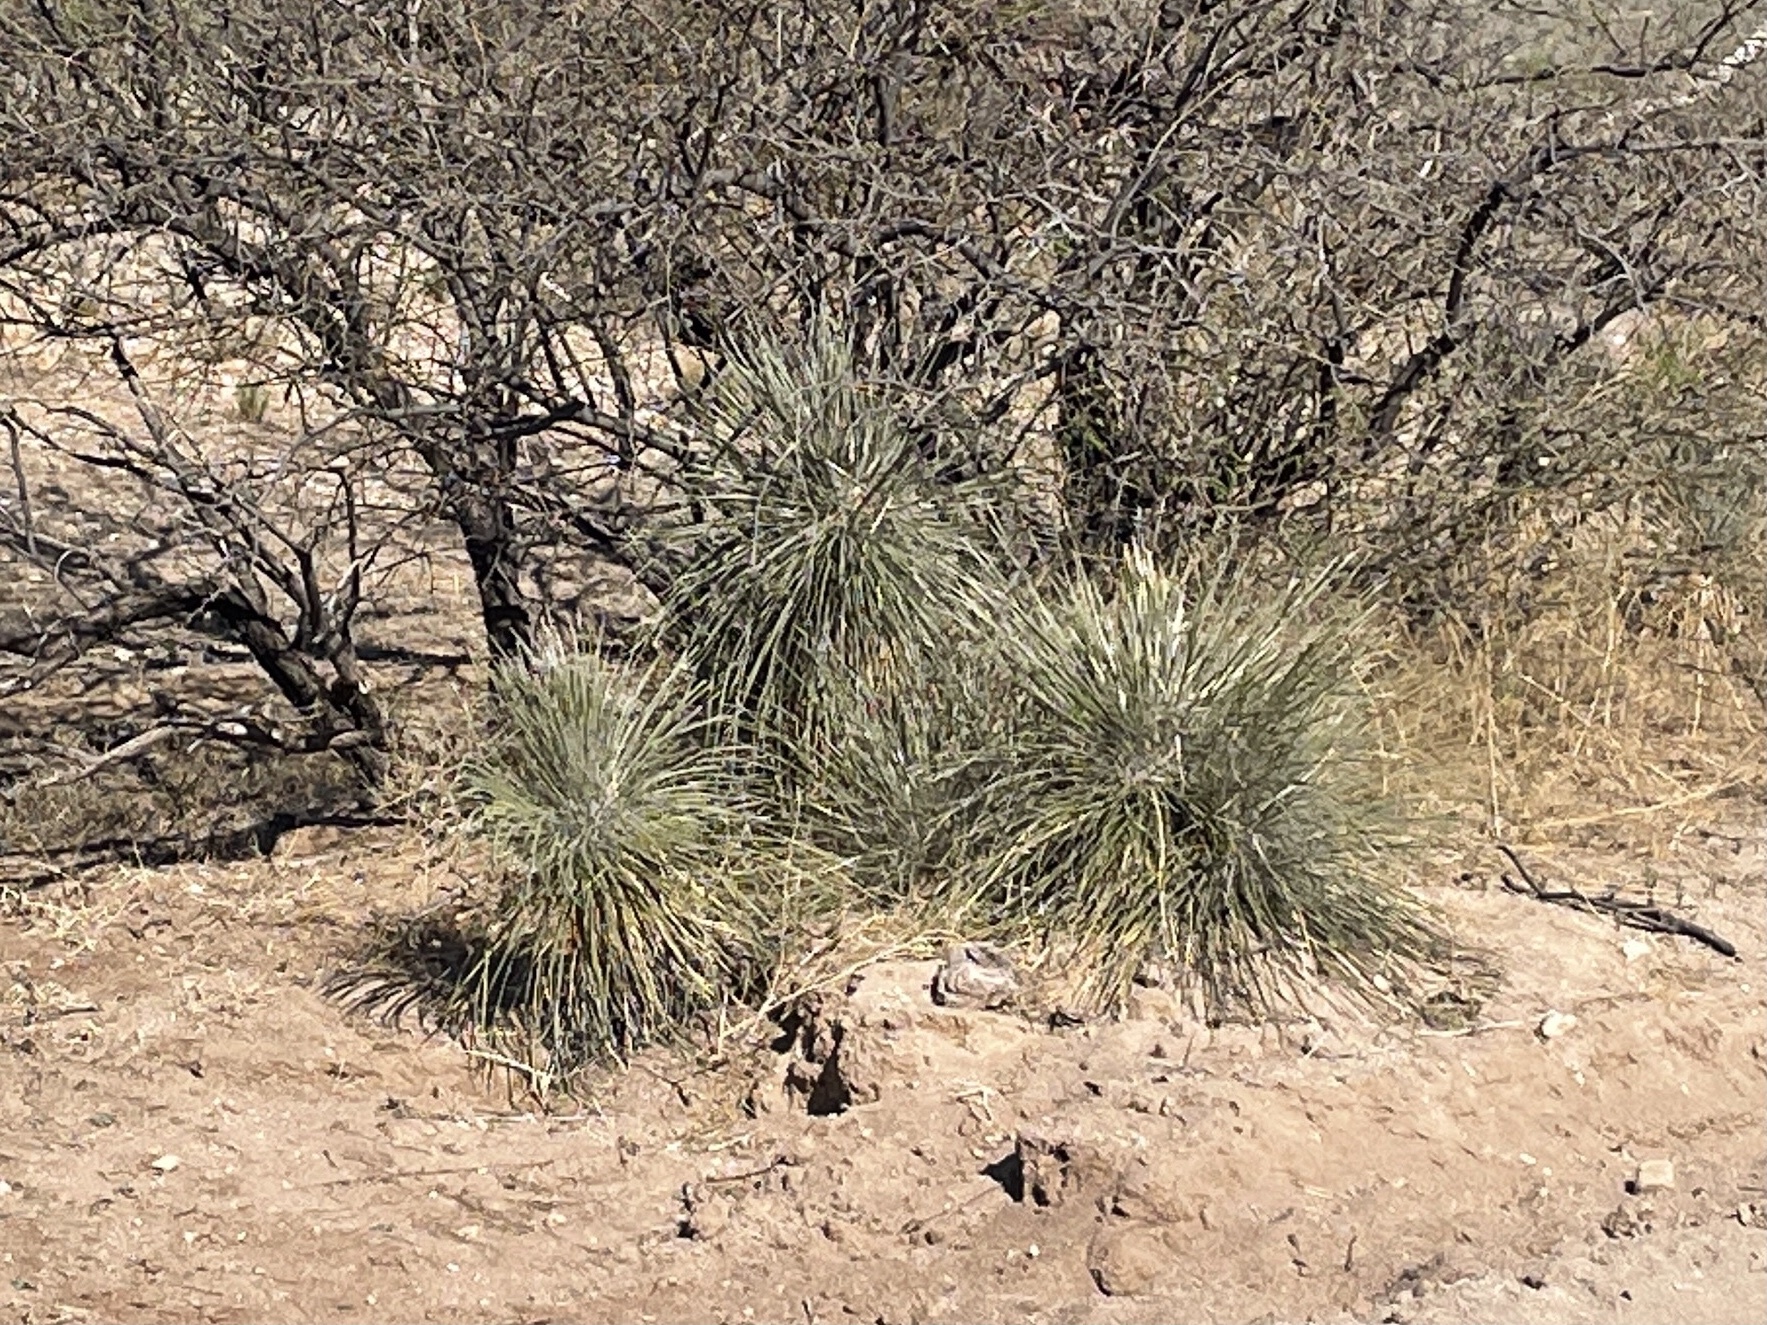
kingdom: Plantae
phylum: Tracheophyta
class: Liliopsida
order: Asparagales
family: Asparagaceae
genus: Yucca
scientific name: Yucca elata
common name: Palmella
